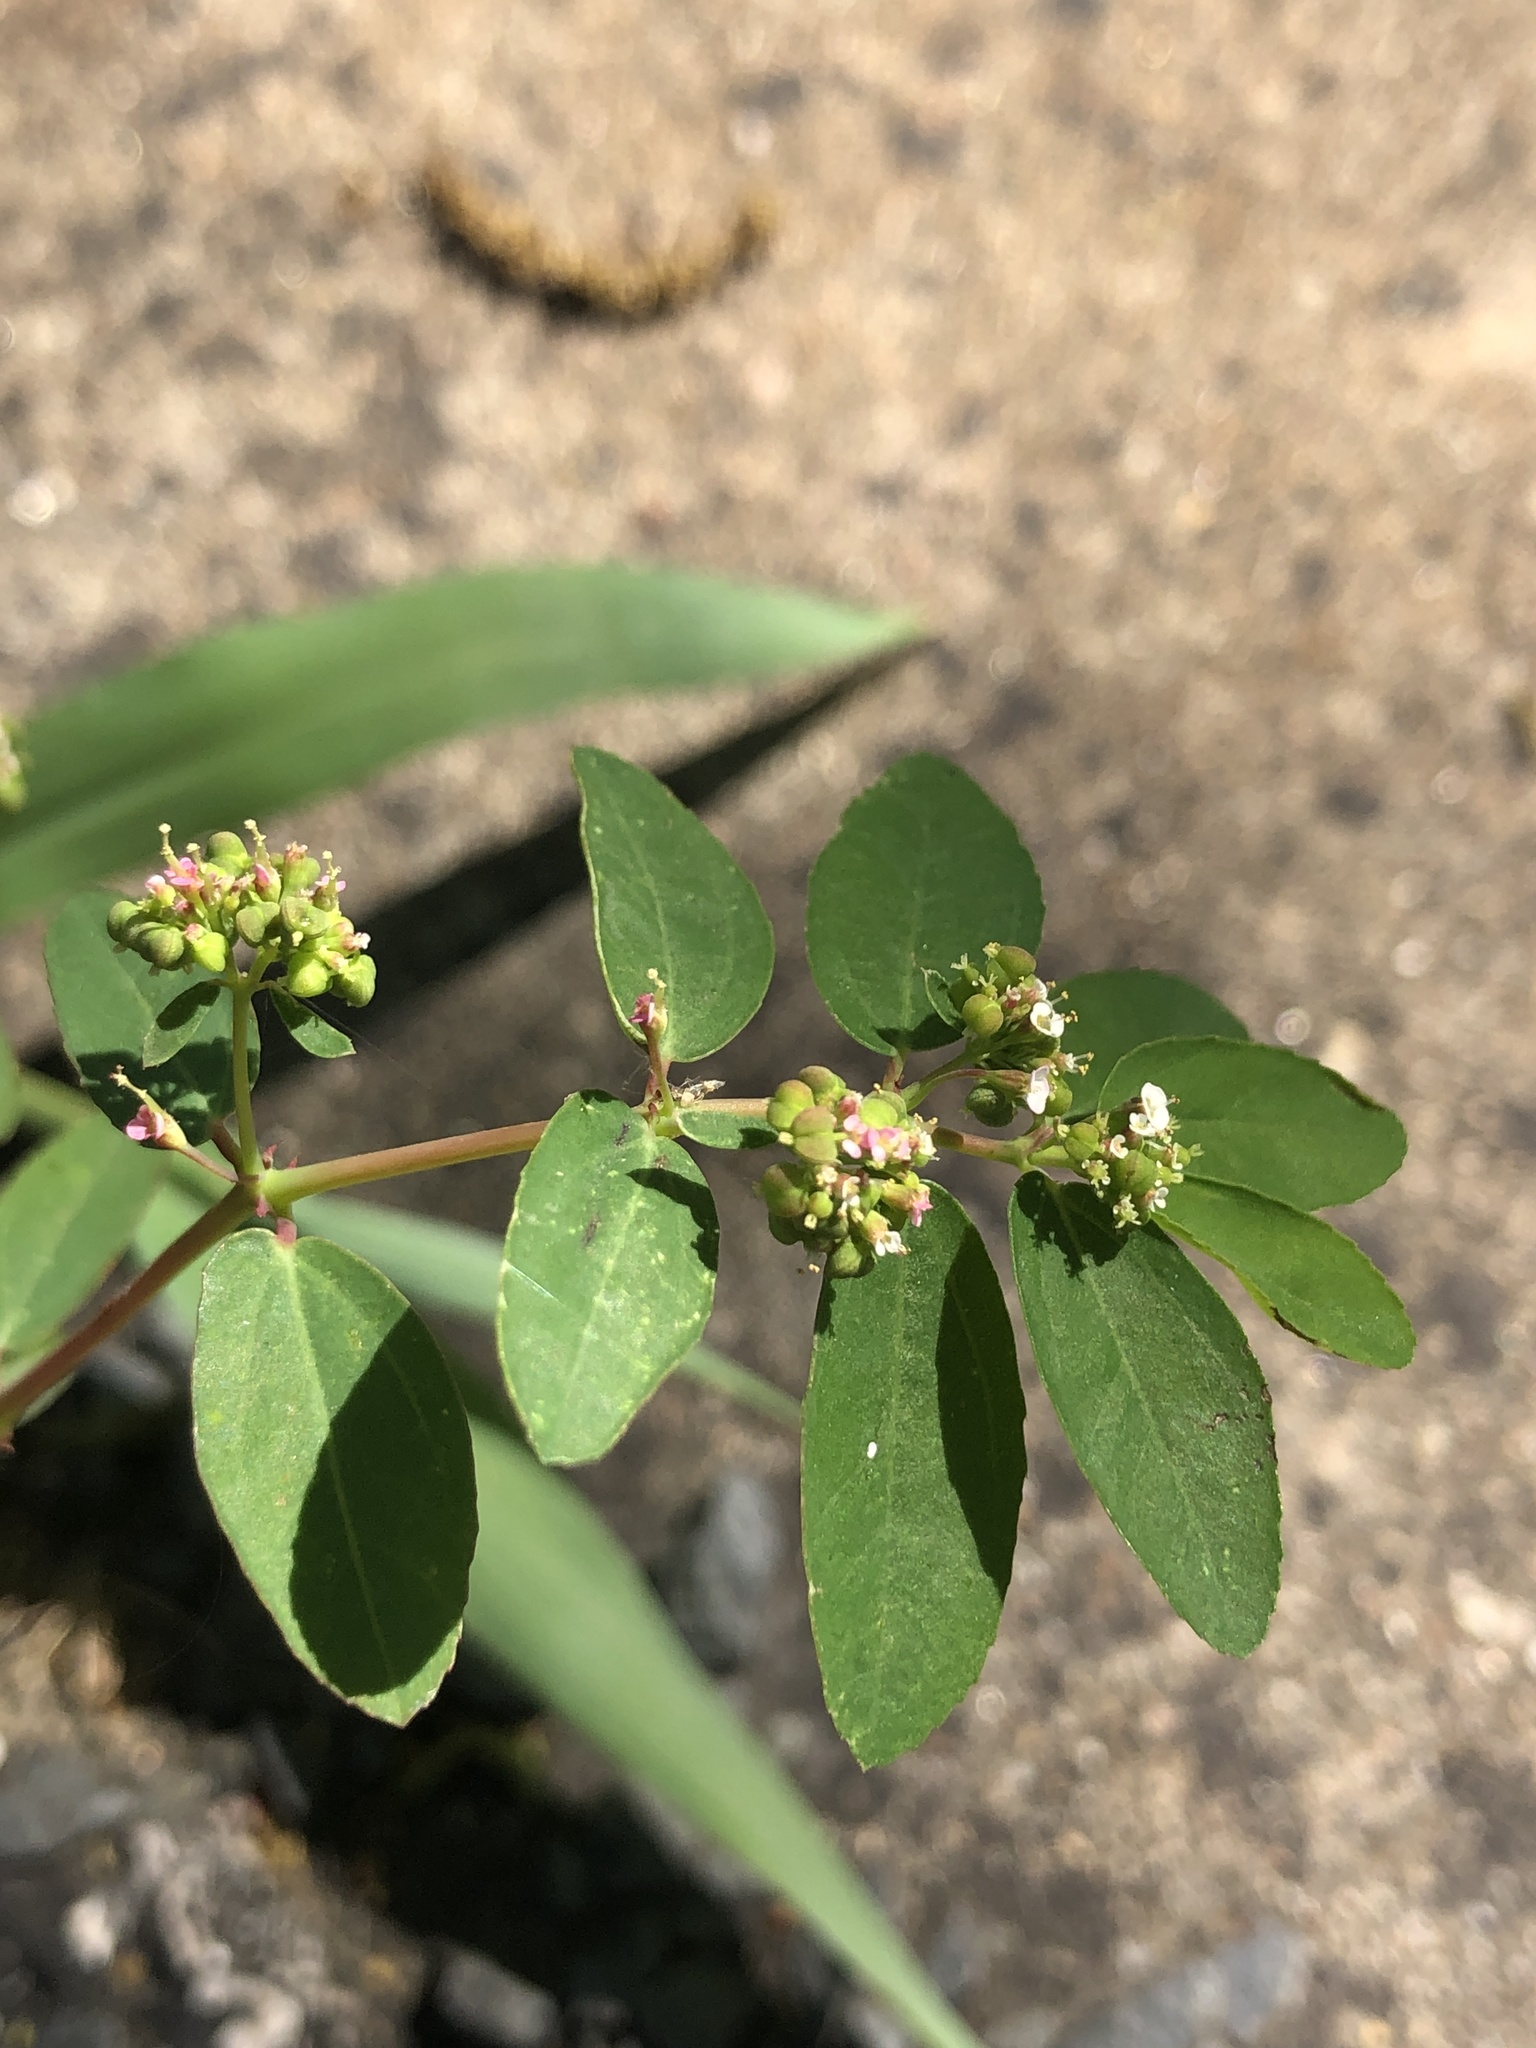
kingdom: Plantae
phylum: Tracheophyta
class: Magnoliopsida
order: Malpighiales
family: Euphorbiaceae
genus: Euphorbia
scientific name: Euphorbia hypericifolia
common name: Graceful sandmat
